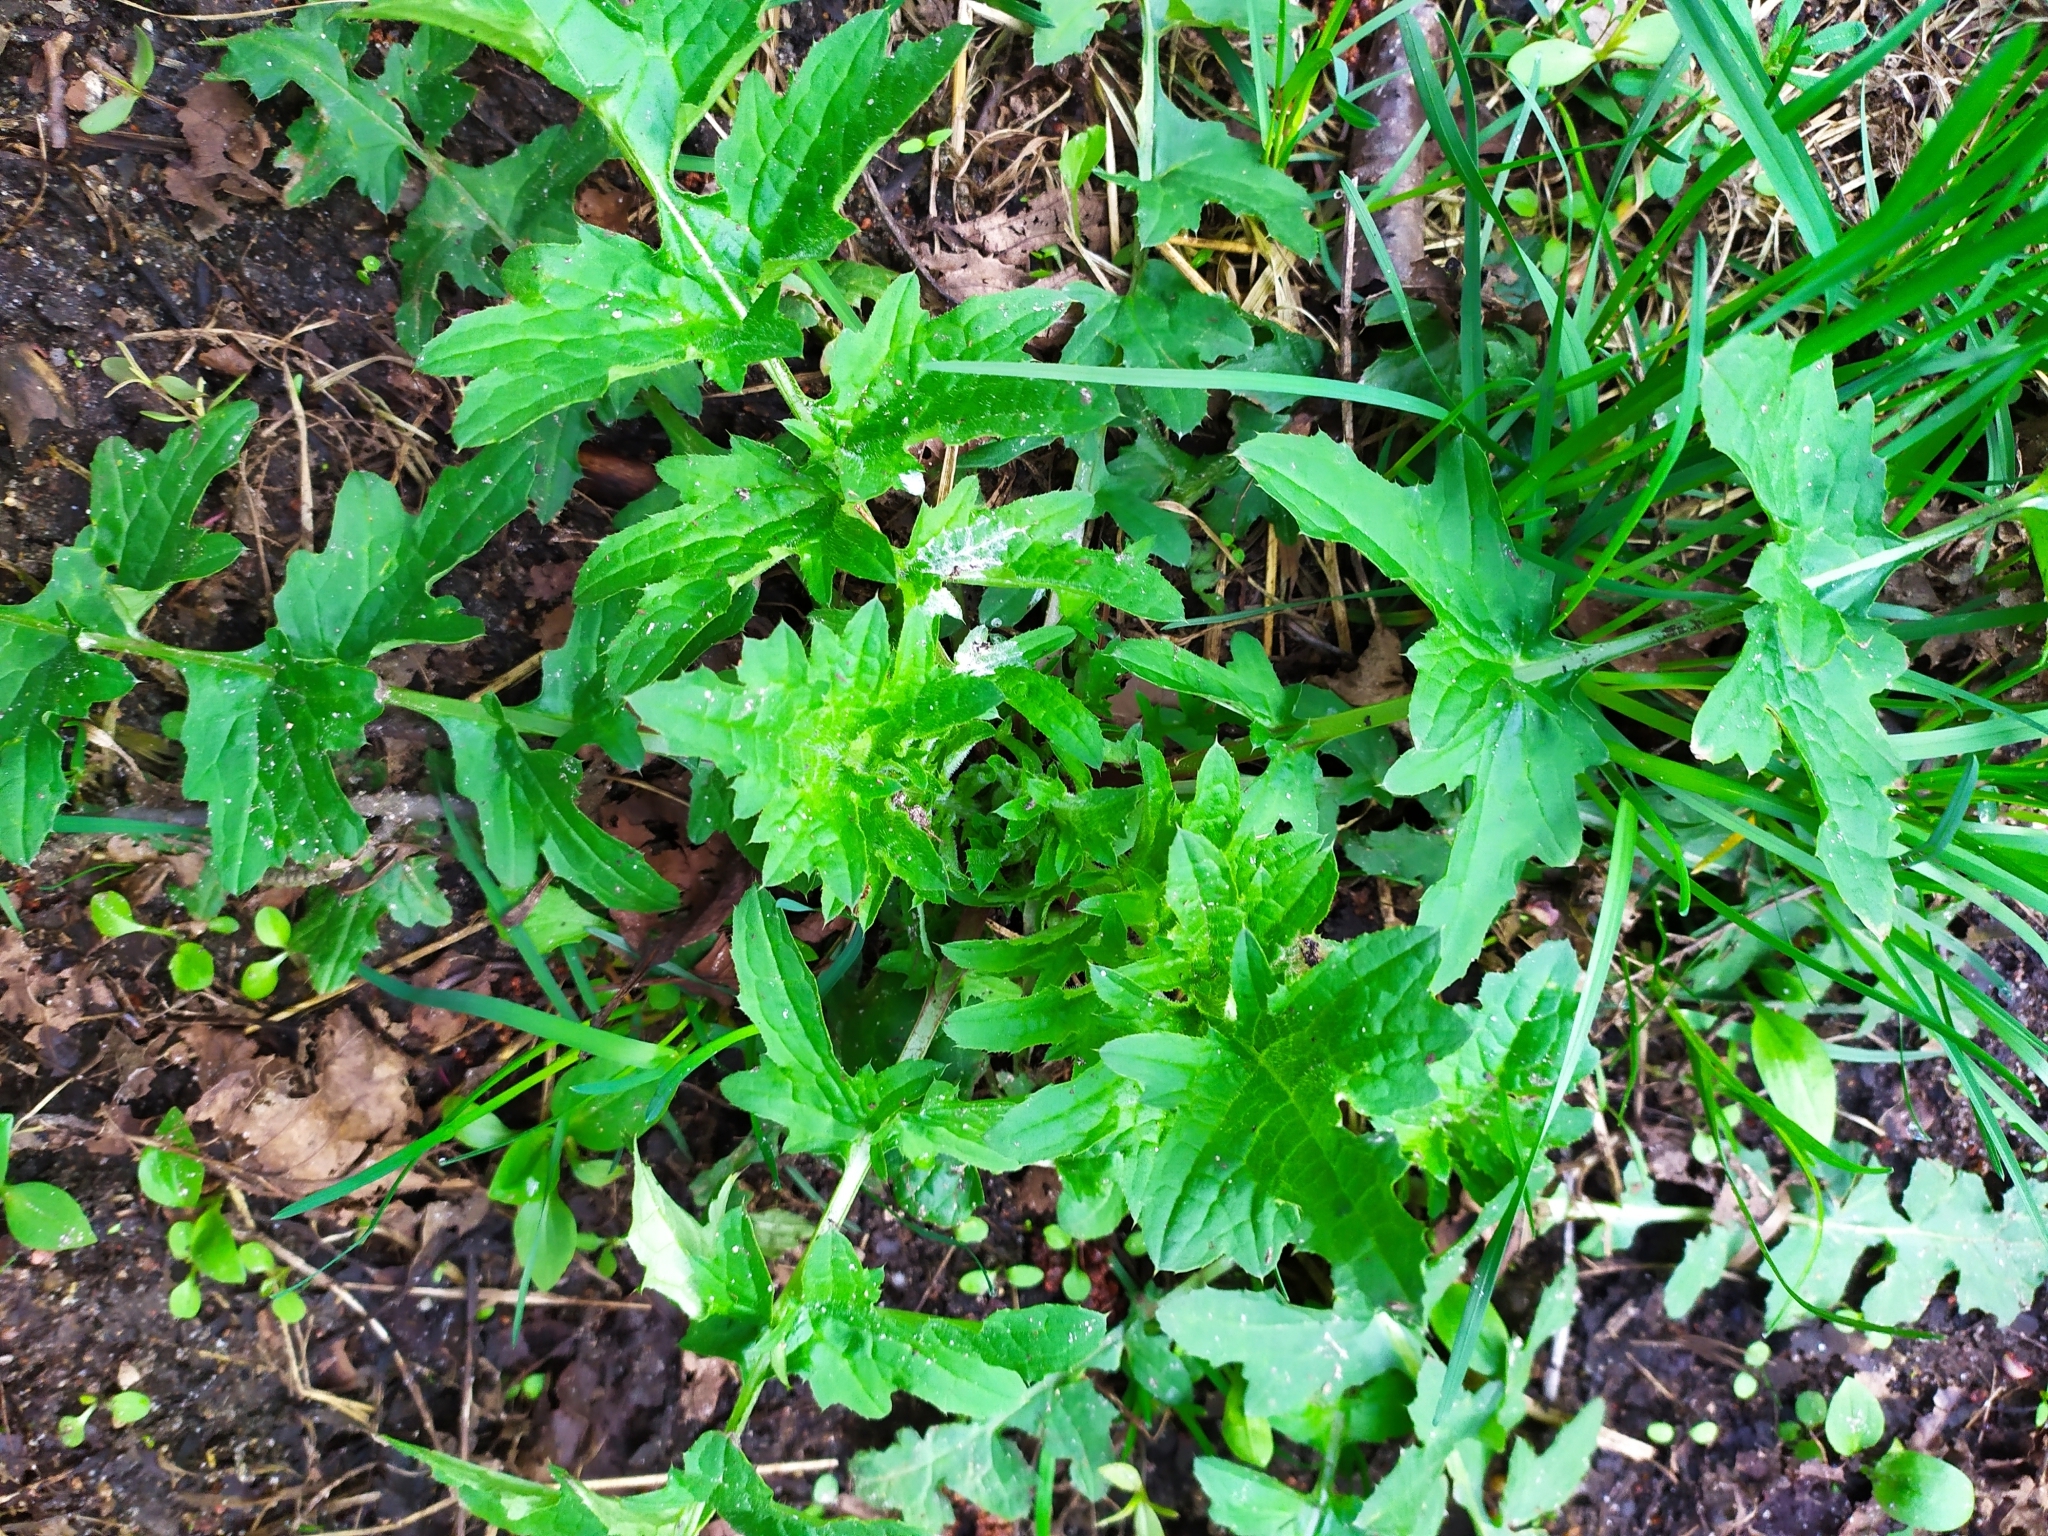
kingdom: Plantae
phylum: Tracheophyta
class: Magnoliopsida
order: Asterales
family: Asteraceae
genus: Carduus
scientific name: Carduus crispus
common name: Welted thistle
